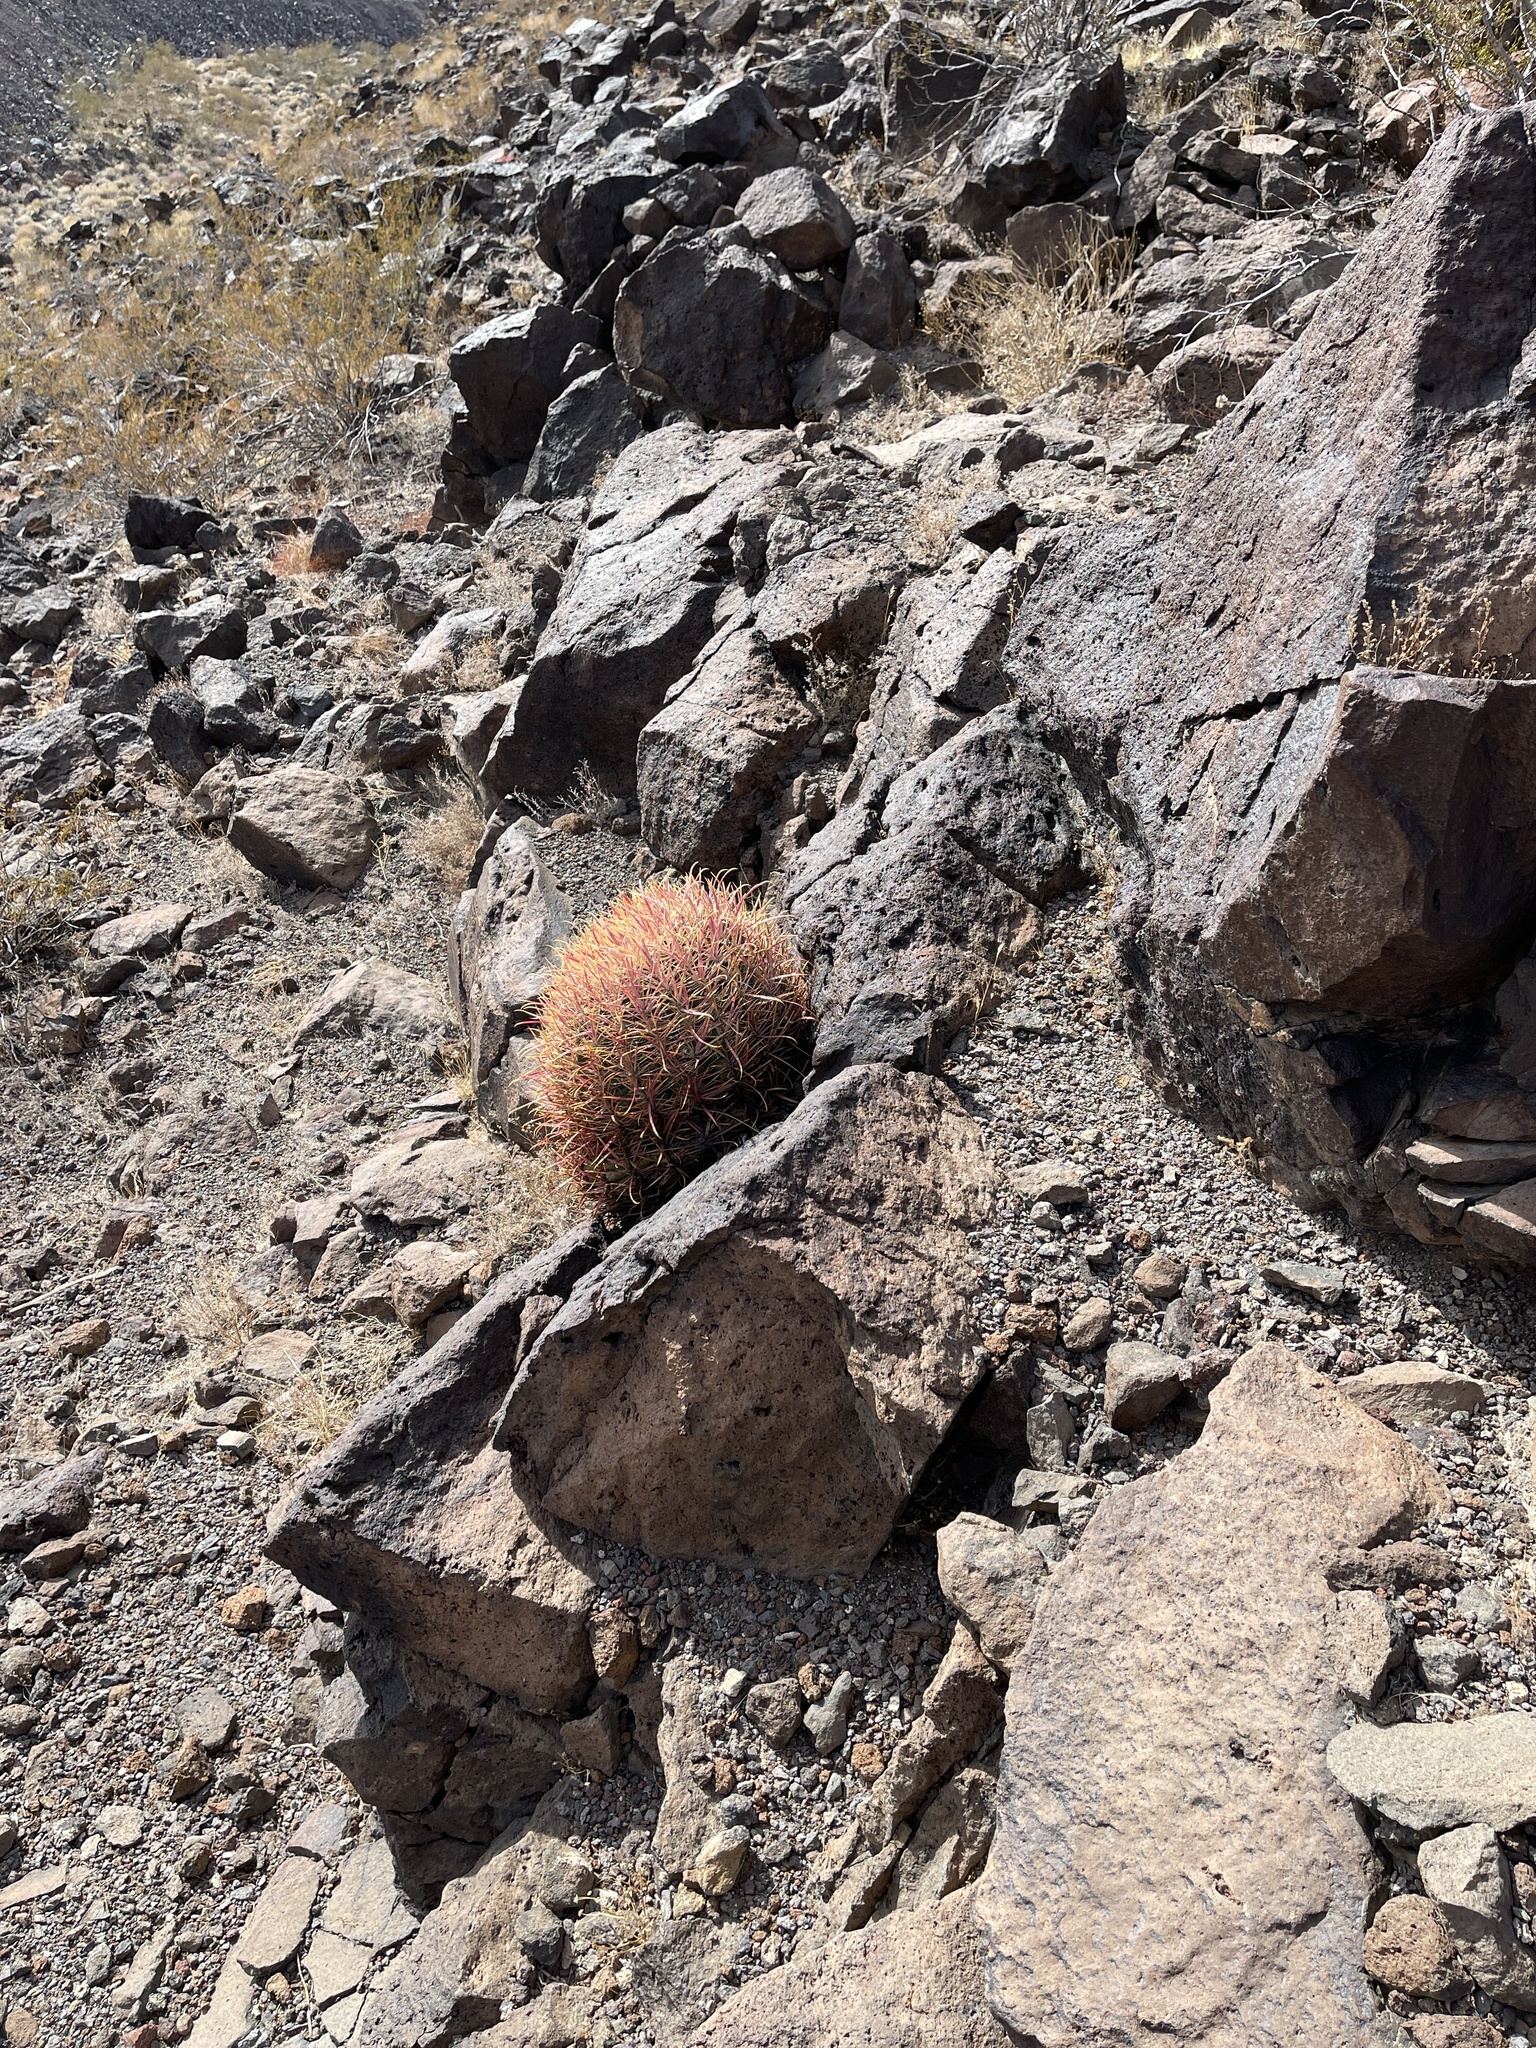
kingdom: Plantae
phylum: Tracheophyta
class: Magnoliopsida
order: Caryophyllales
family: Cactaceae
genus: Ferocactus
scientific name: Ferocactus cylindraceus
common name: California barrel cactus
